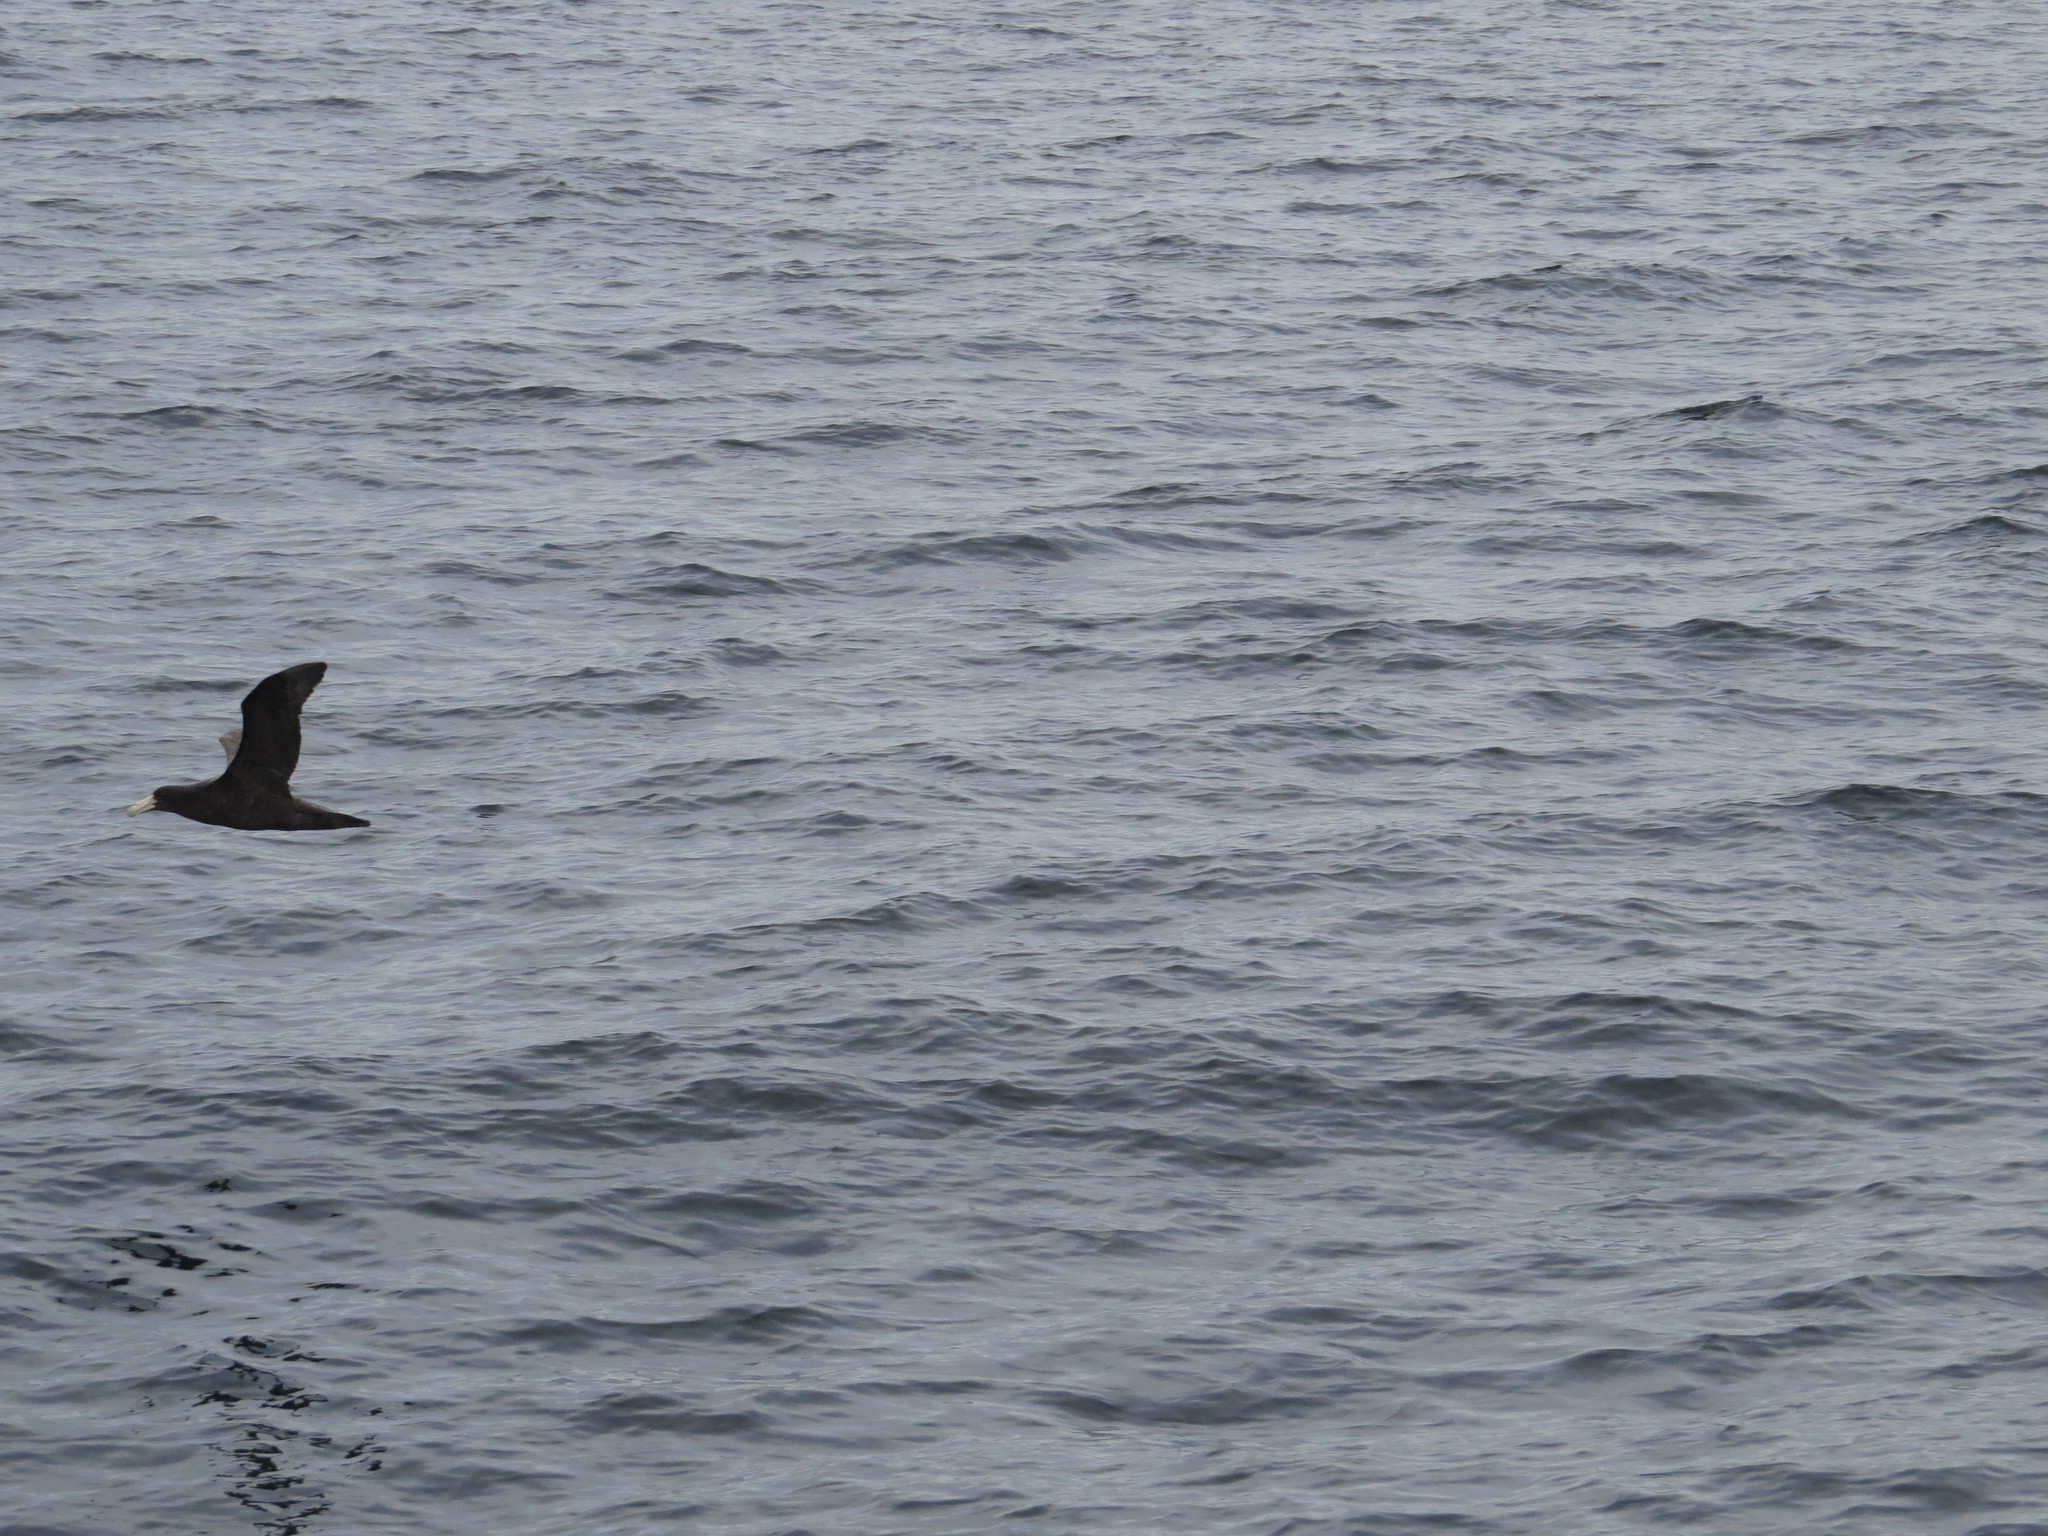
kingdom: Animalia
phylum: Chordata
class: Aves
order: Procellariiformes
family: Procellariidae
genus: Macronectes
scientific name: Macronectes giganteus
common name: Southern giant petrel
